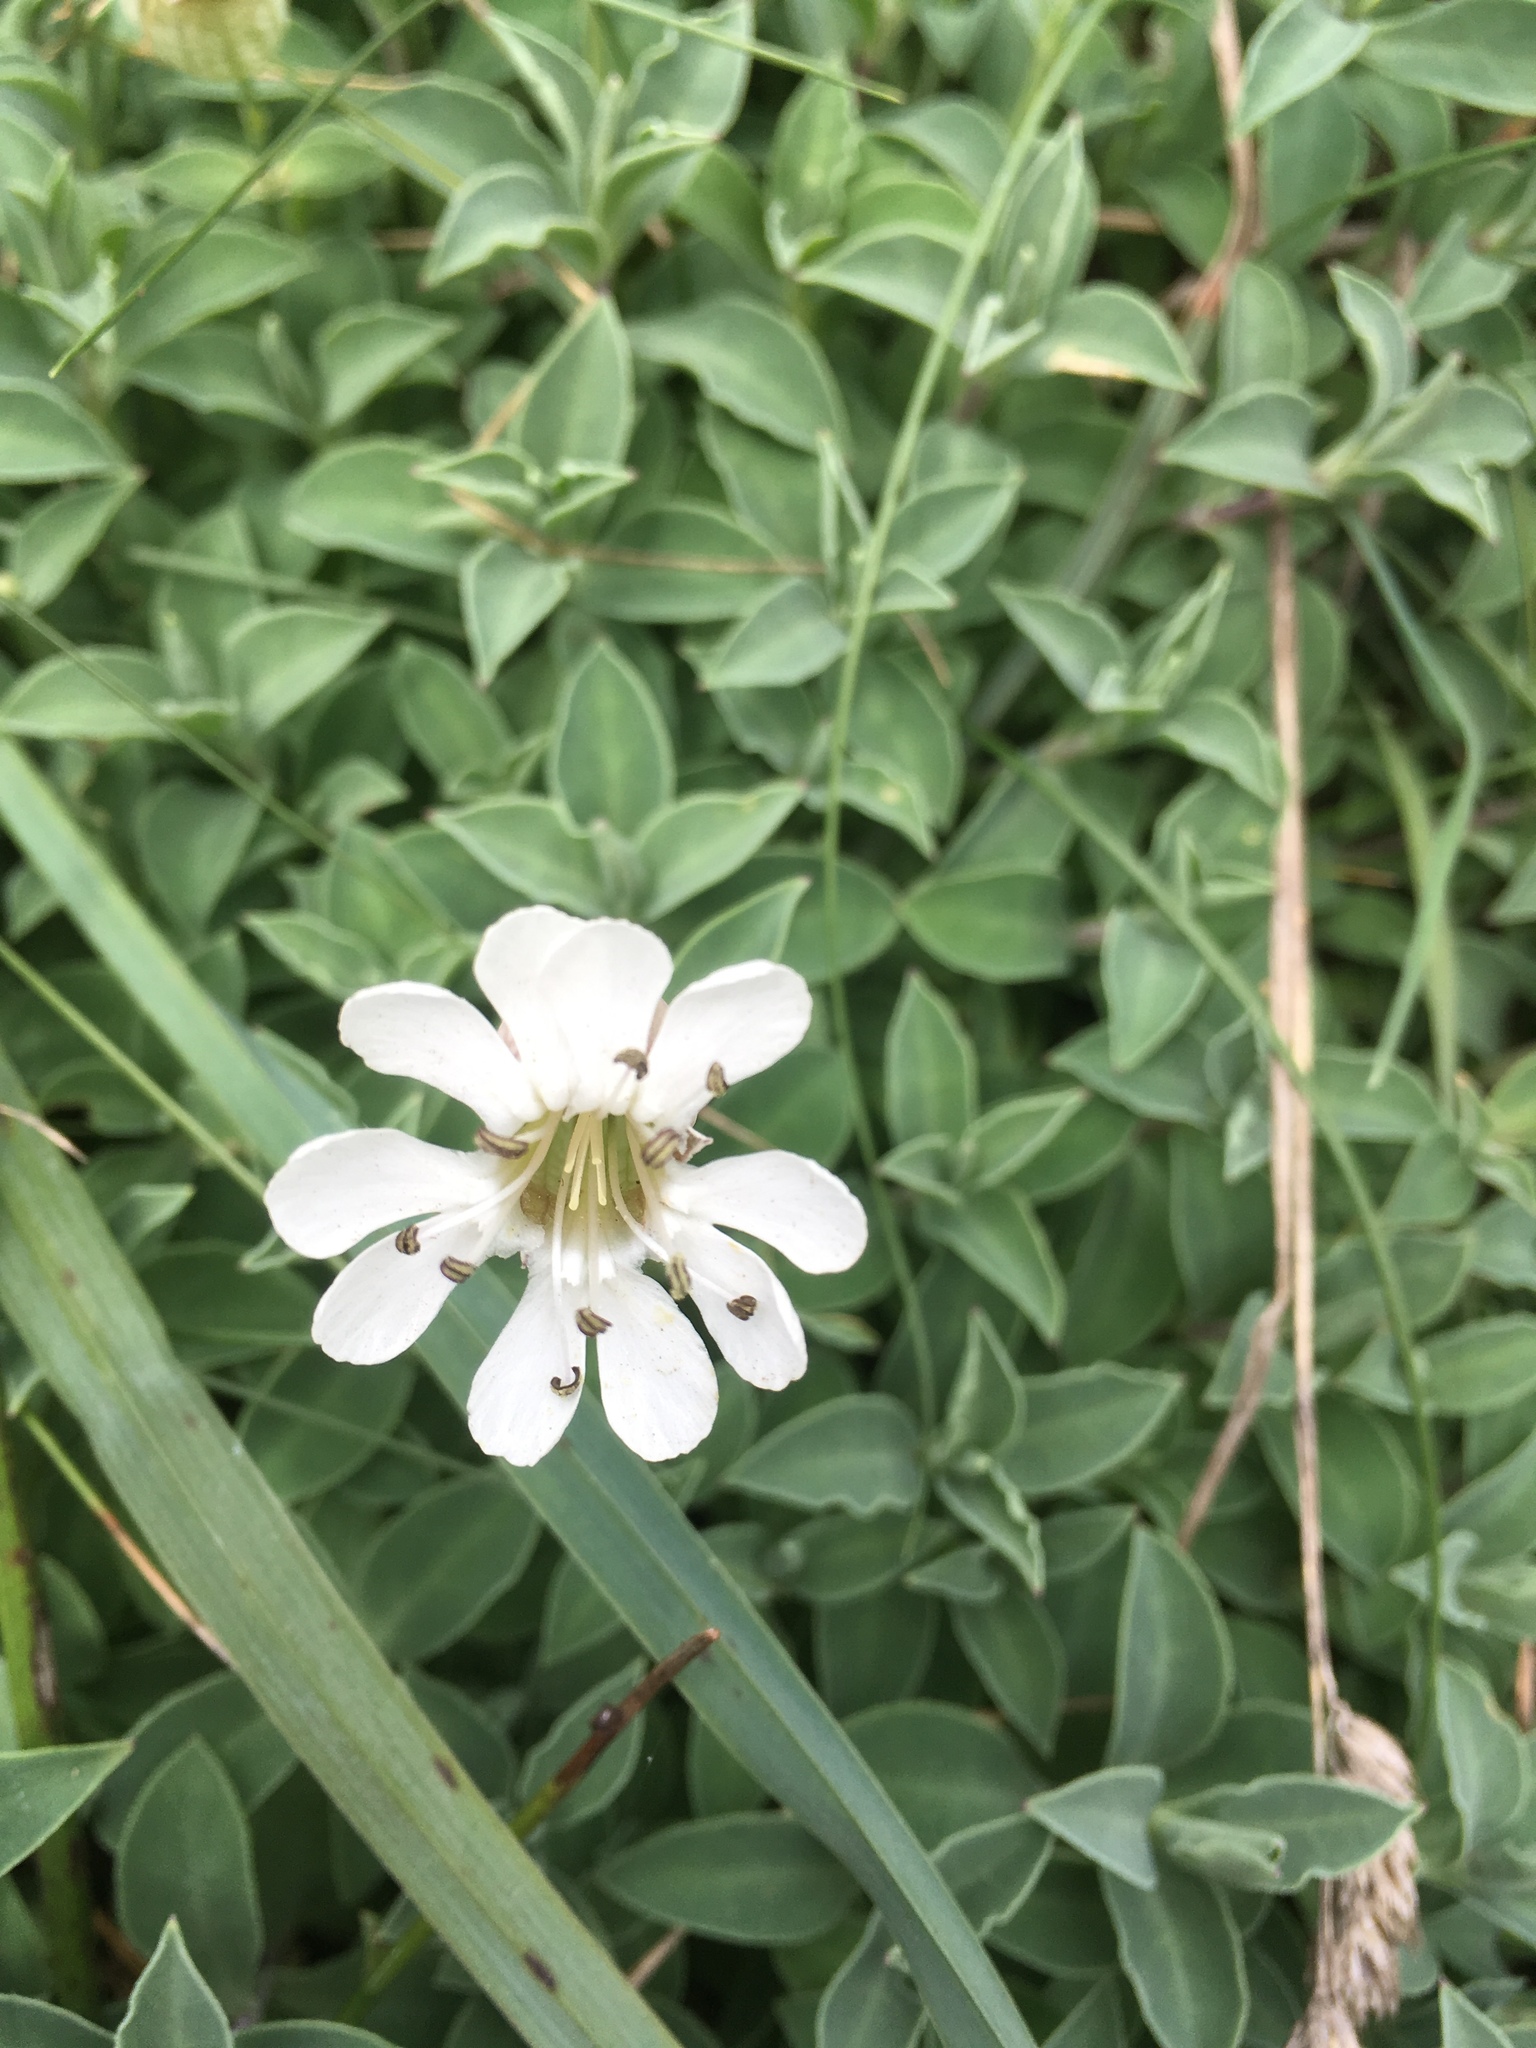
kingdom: Plantae
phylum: Tracheophyta
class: Magnoliopsida
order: Caryophyllales
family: Caryophyllaceae
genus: Silene
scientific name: Silene uniflora
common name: Sea campion
